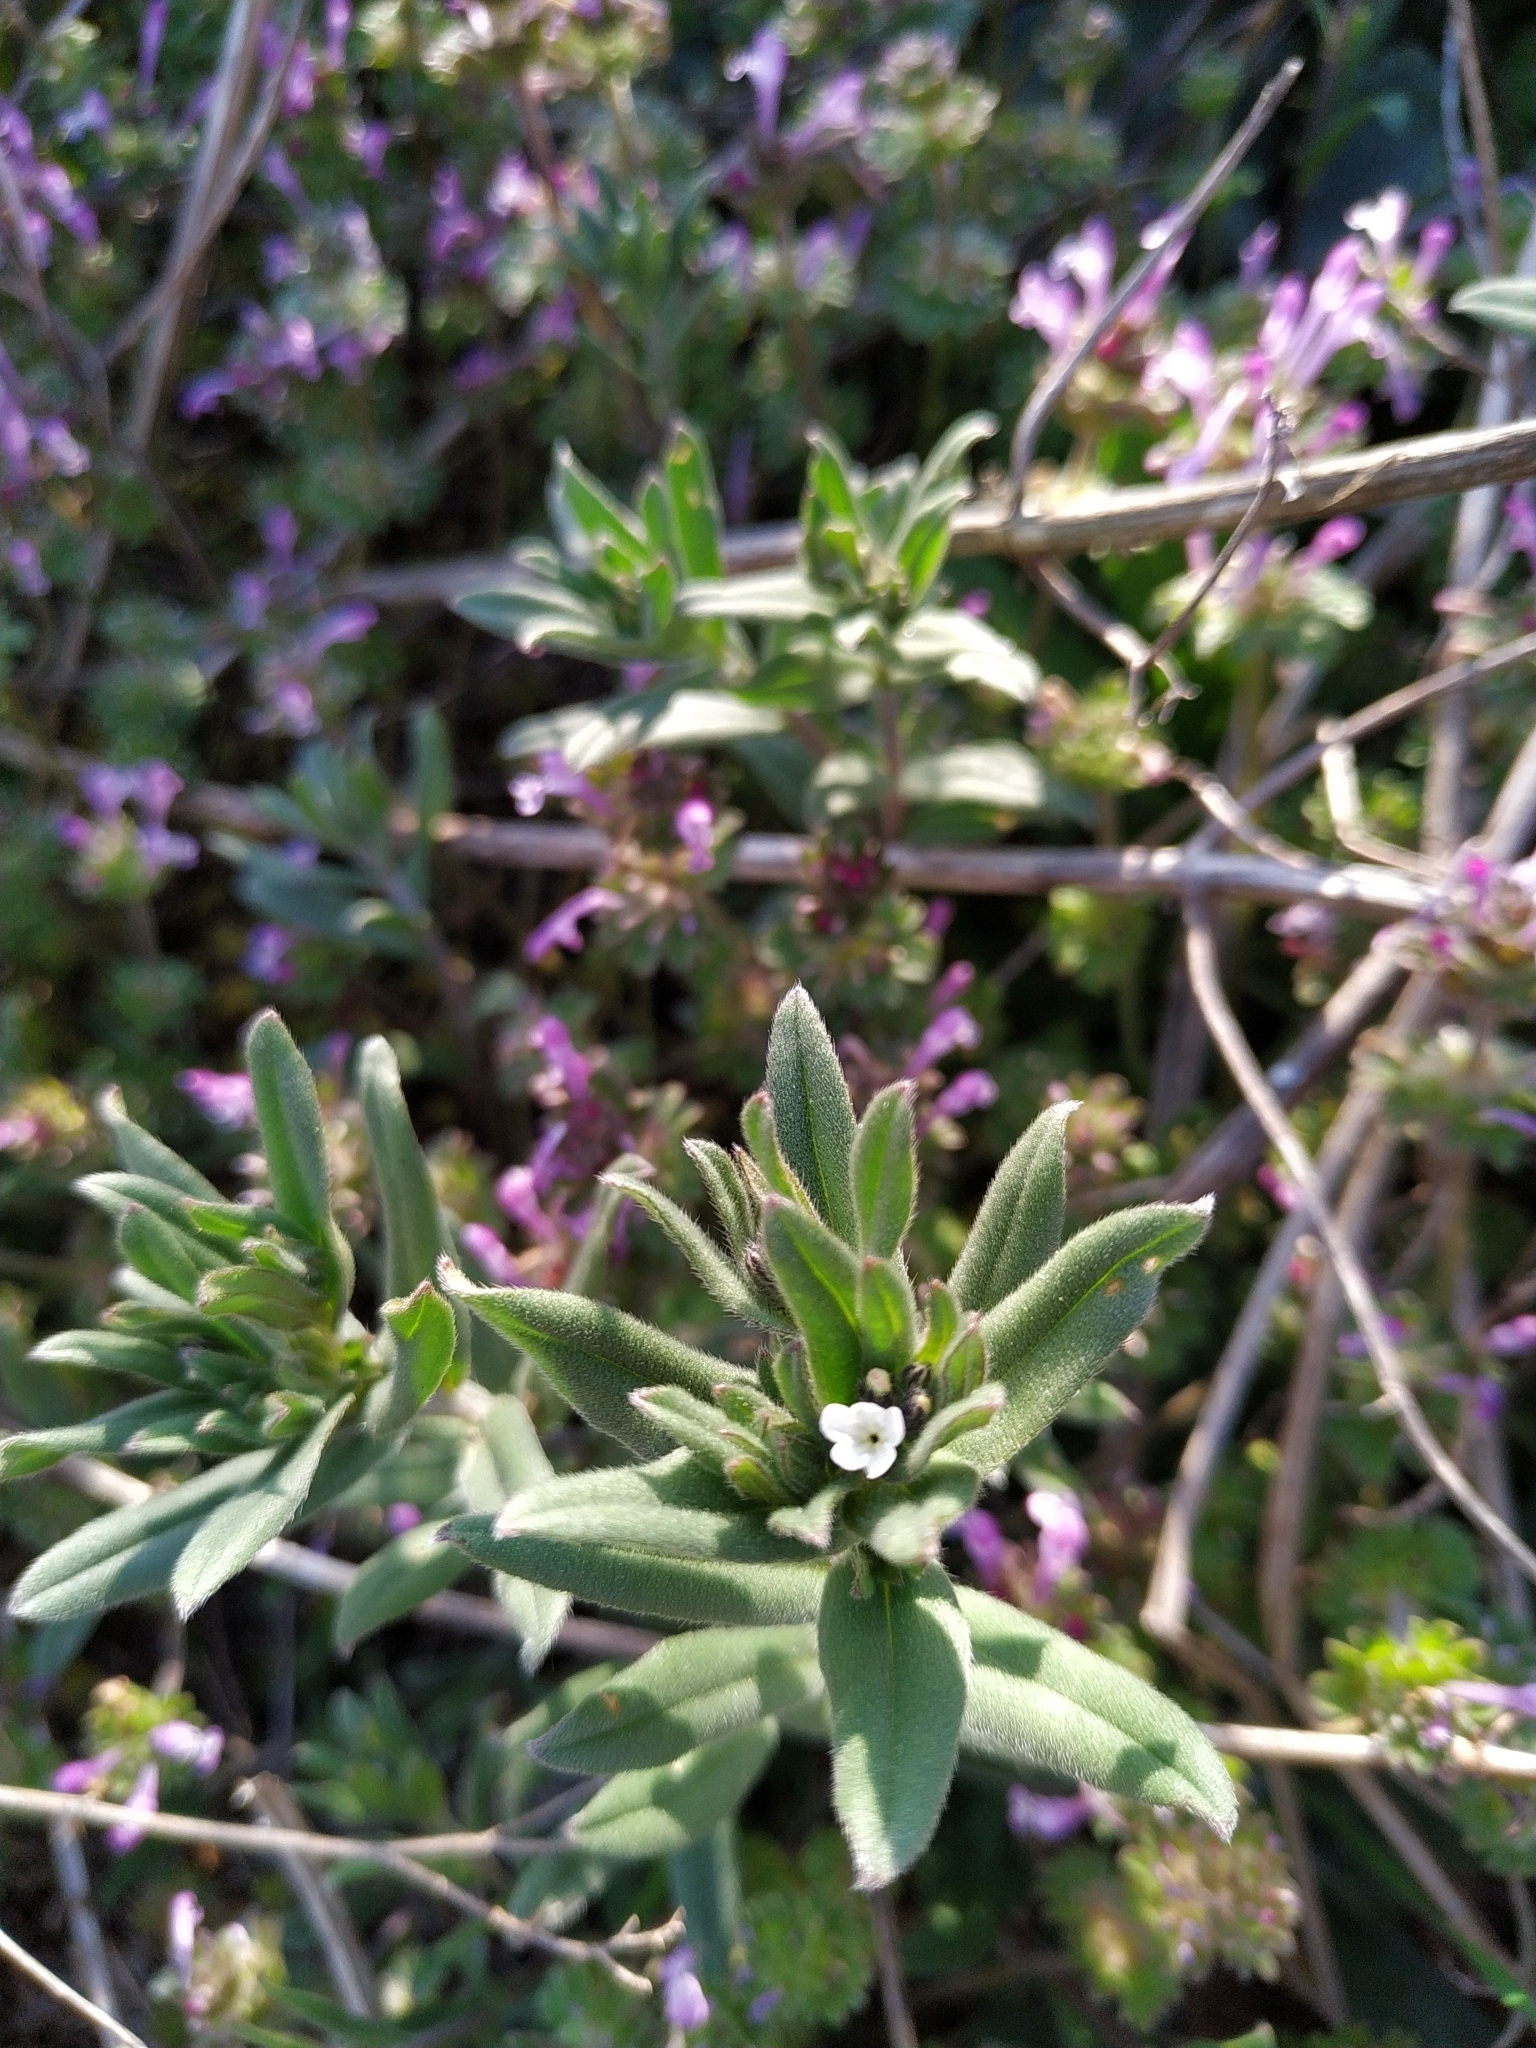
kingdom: Plantae
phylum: Tracheophyta
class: Magnoliopsida
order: Boraginales
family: Boraginaceae
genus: Buglossoides
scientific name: Buglossoides arvensis
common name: Corn gromwell
